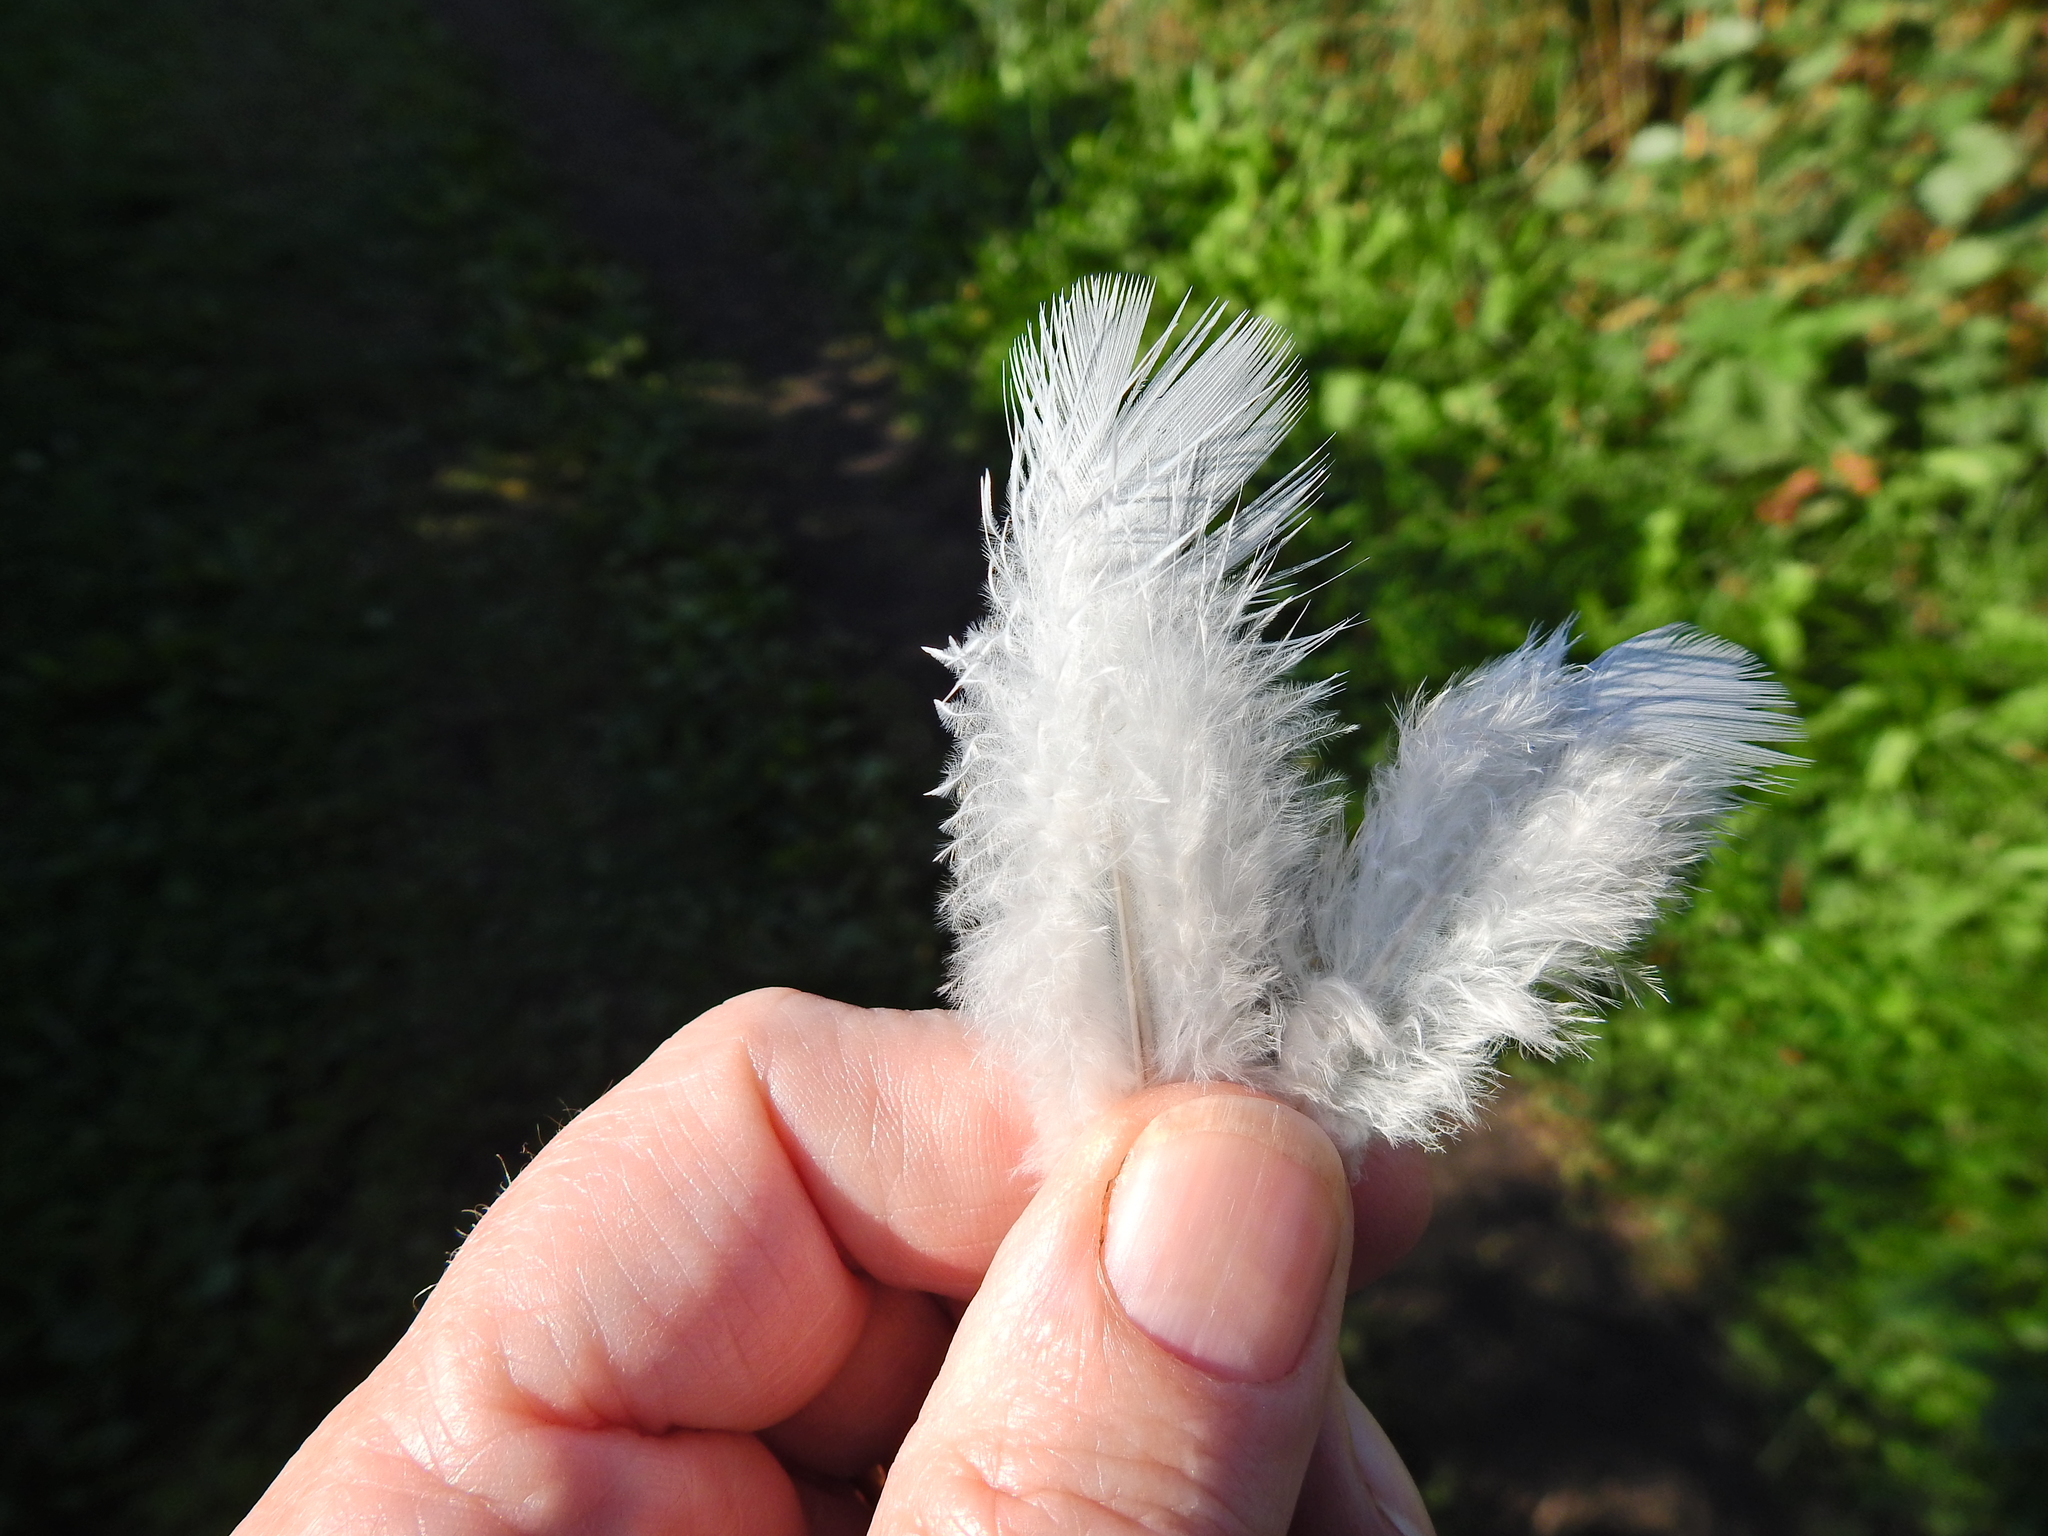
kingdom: Animalia
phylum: Chordata
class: Aves
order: Columbiformes
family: Columbidae
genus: Columba
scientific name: Columba palumbus
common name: Common wood pigeon
